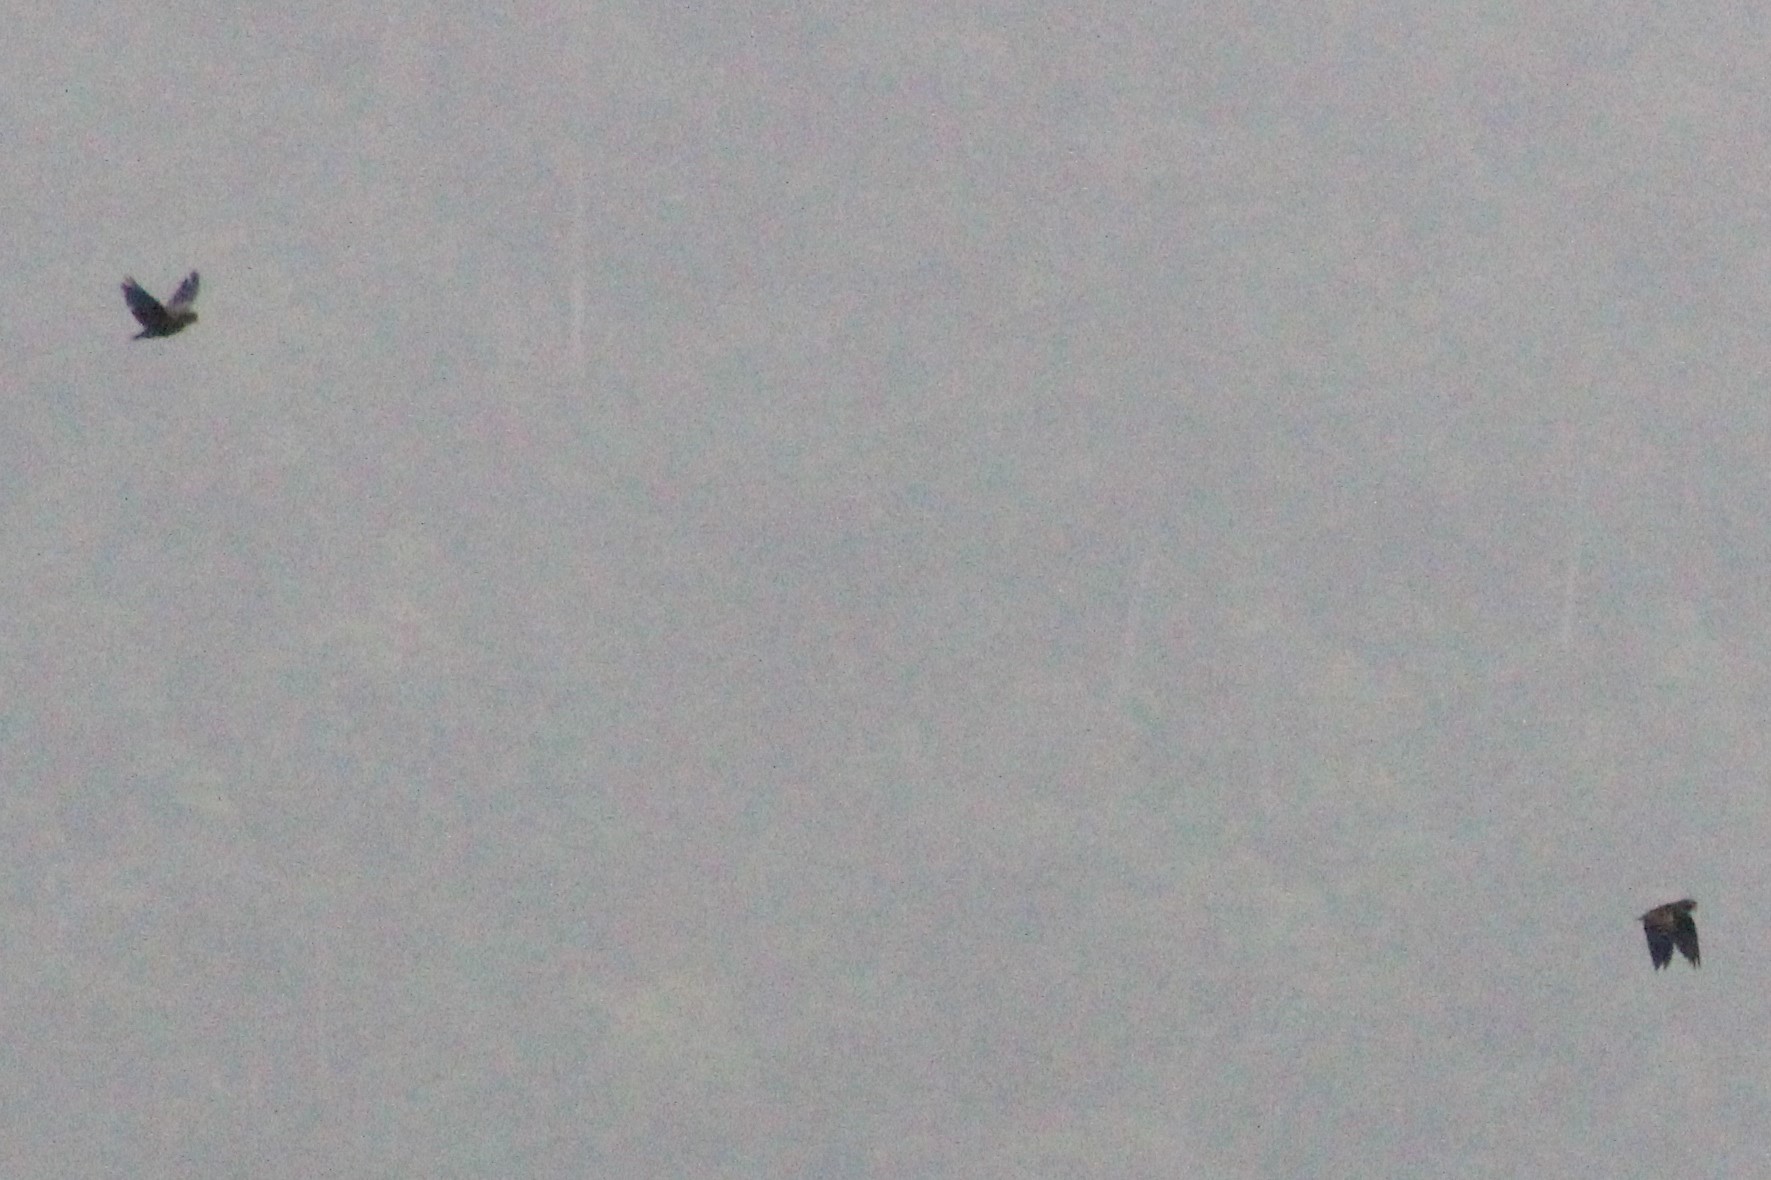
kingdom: Animalia
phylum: Chordata
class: Aves
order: Psittaciformes
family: Psittacidae
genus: Pionus
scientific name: Pionus chalcopterus
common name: Bronze-winged parrot
